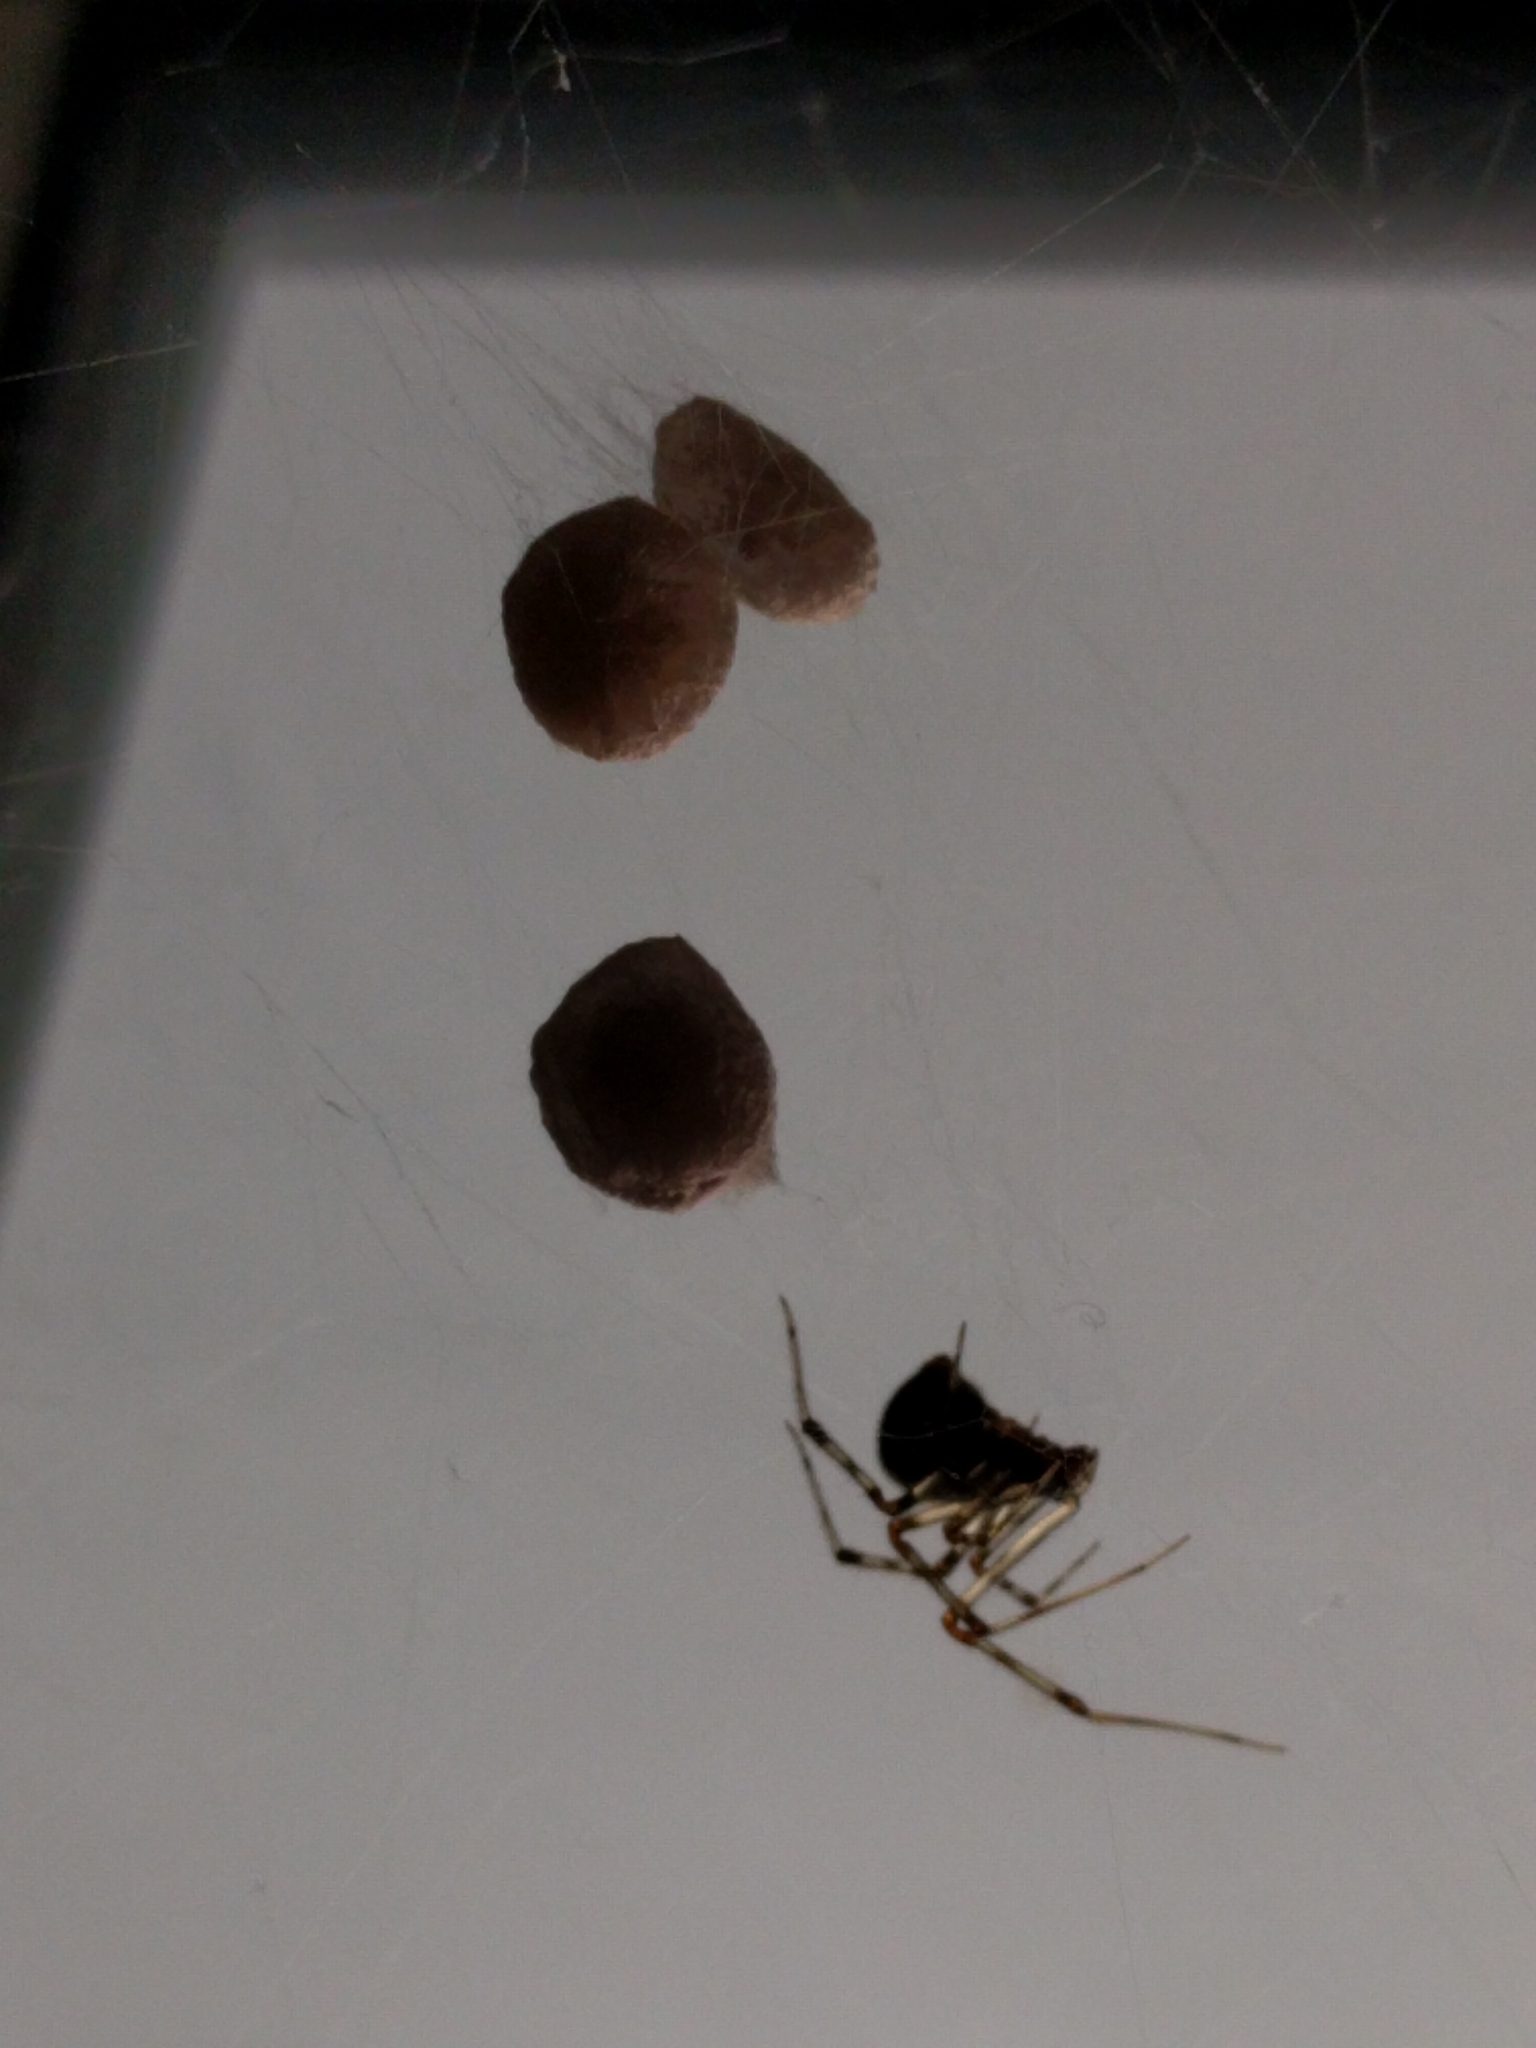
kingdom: Animalia
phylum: Arthropoda
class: Arachnida
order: Araneae
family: Theridiidae
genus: Parasteatoda
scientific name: Parasteatoda tepidariorum
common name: Common house spider
